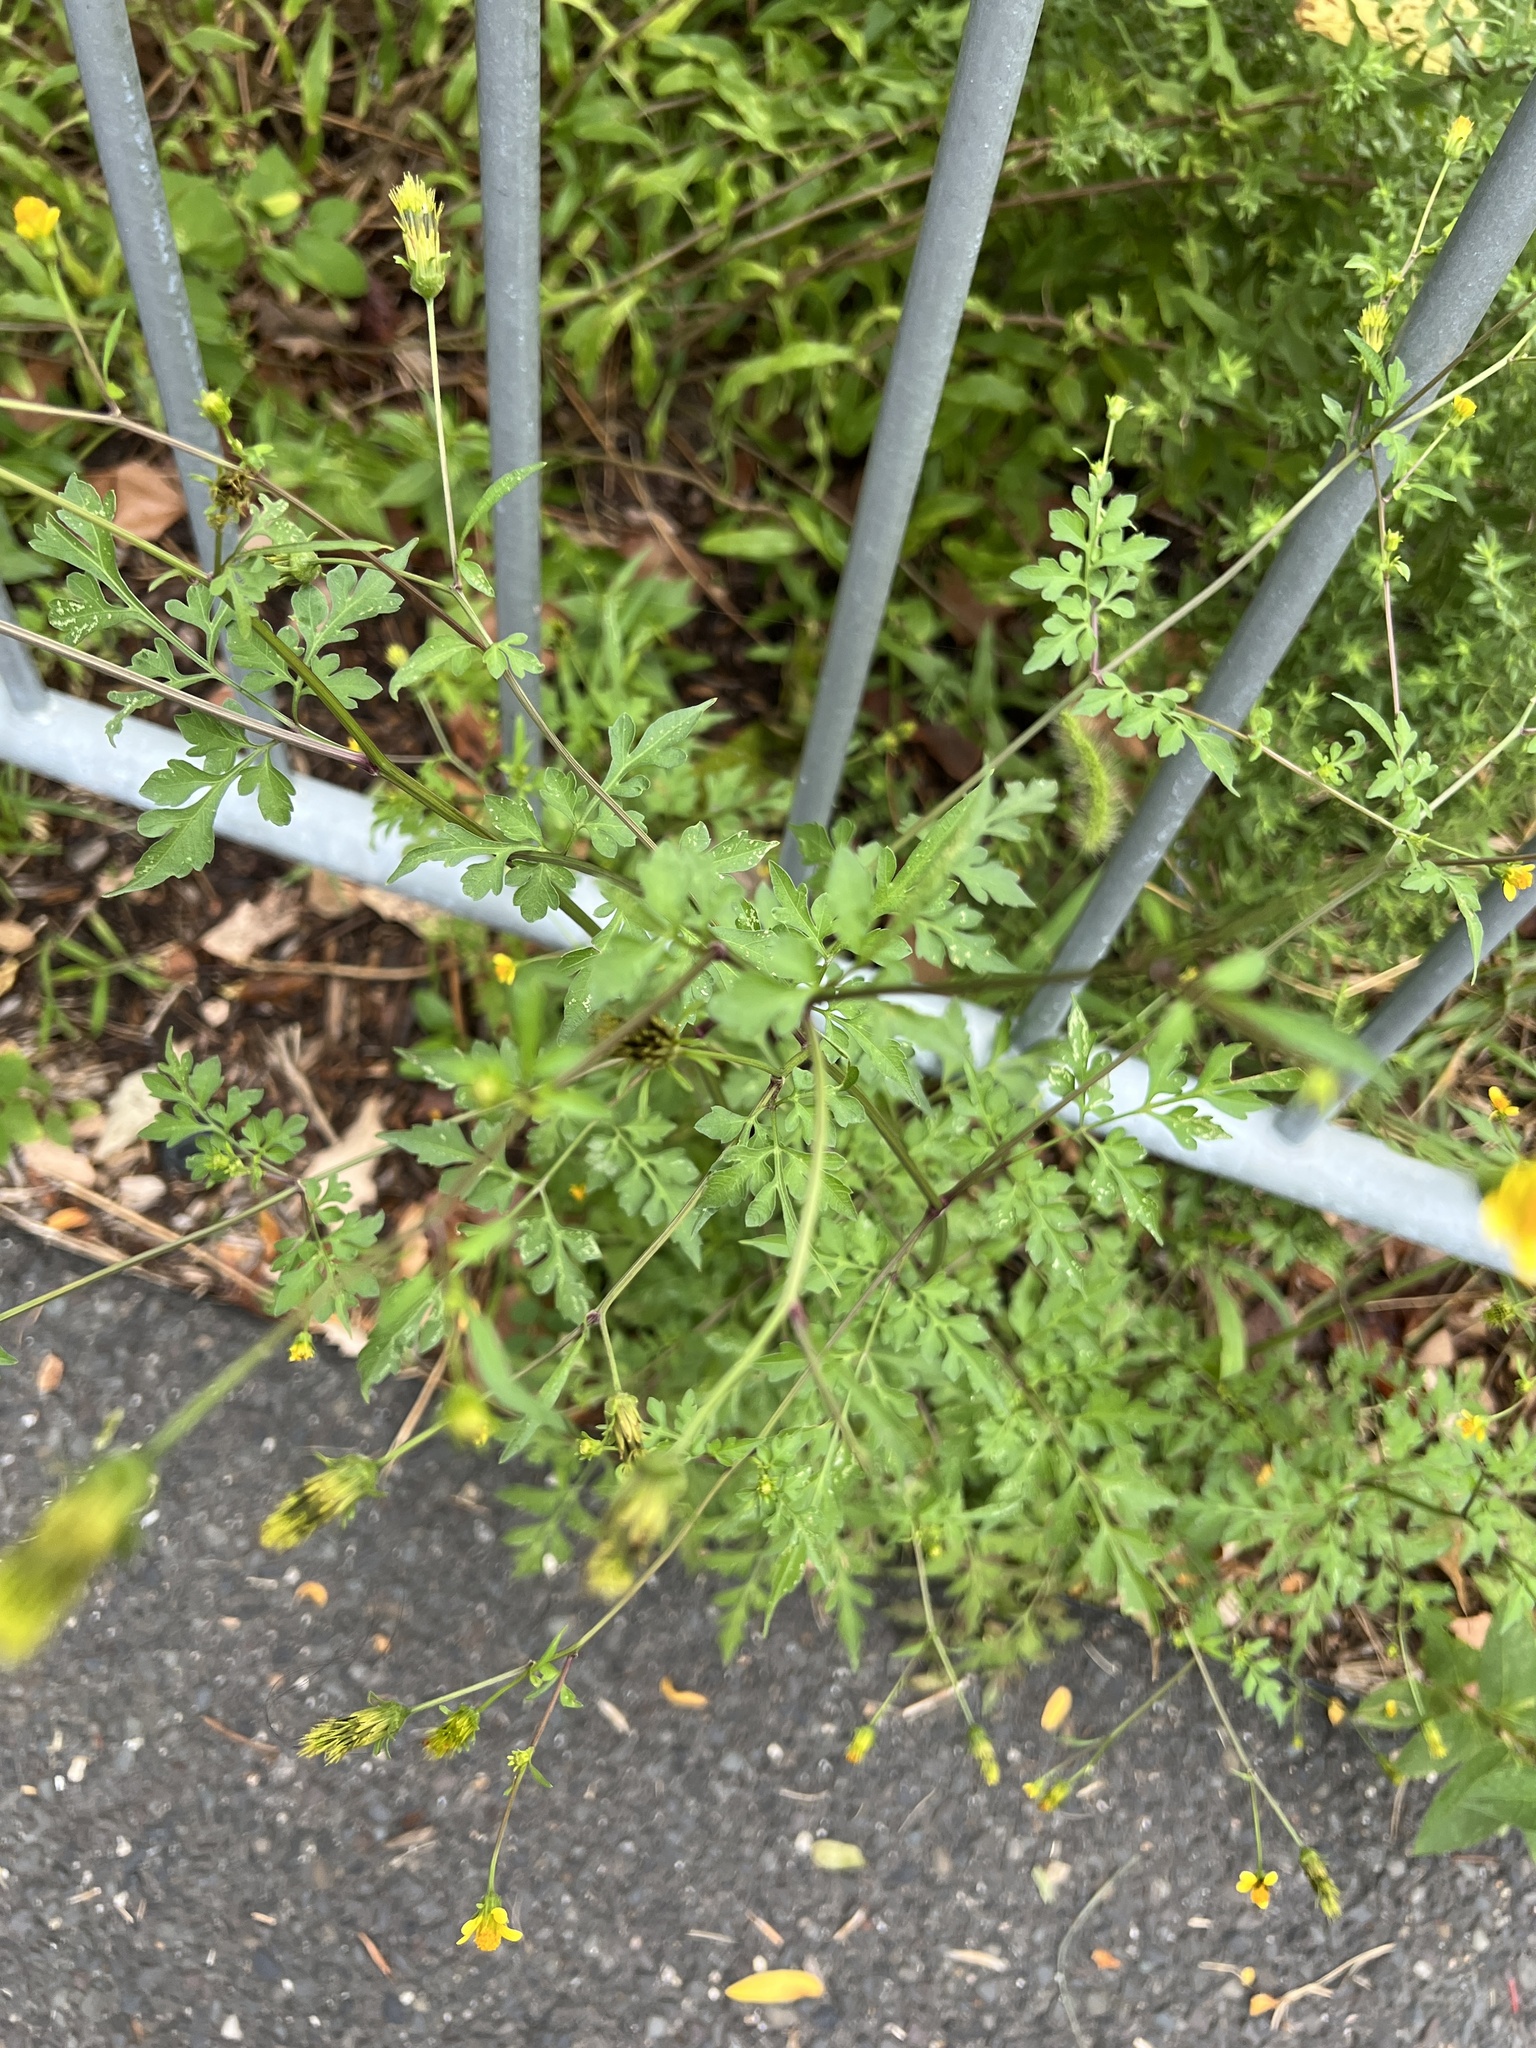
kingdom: Plantae
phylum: Tracheophyta
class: Magnoliopsida
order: Asterales
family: Asteraceae
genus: Bidens
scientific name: Bidens bipinnata
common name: Spanish-needles
